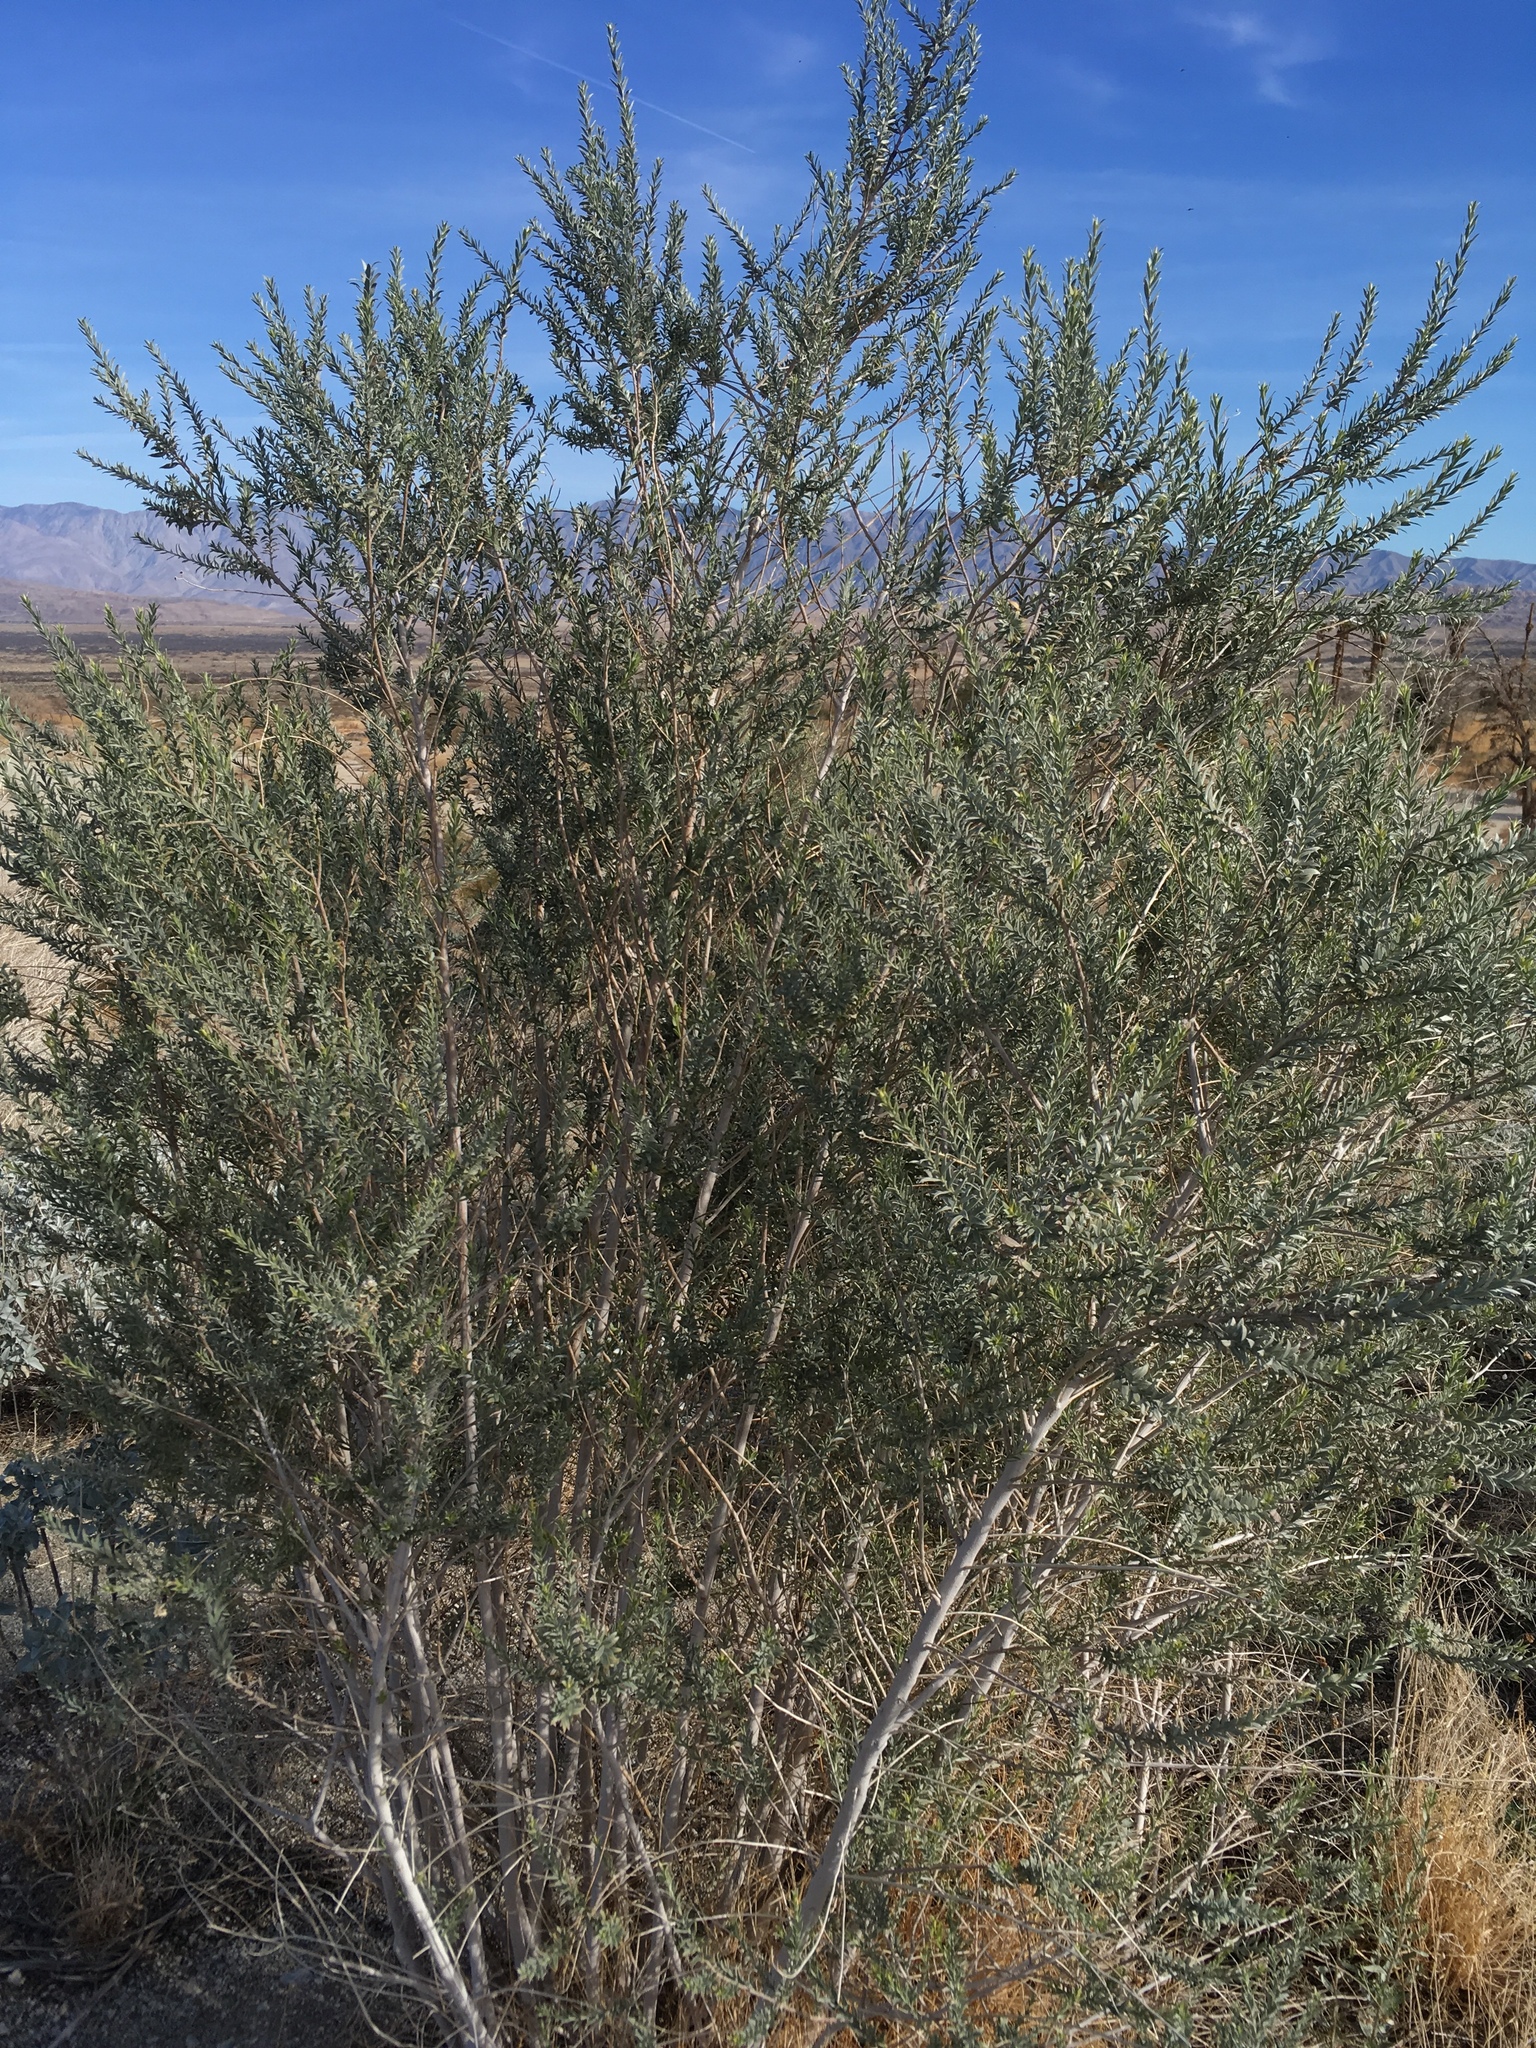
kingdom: Plantae
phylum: Tracheophyta
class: Magnoliopsida
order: Asterales
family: Asteraceae
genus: Pluchea
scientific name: Pluchea sericea
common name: Arrow-weed
